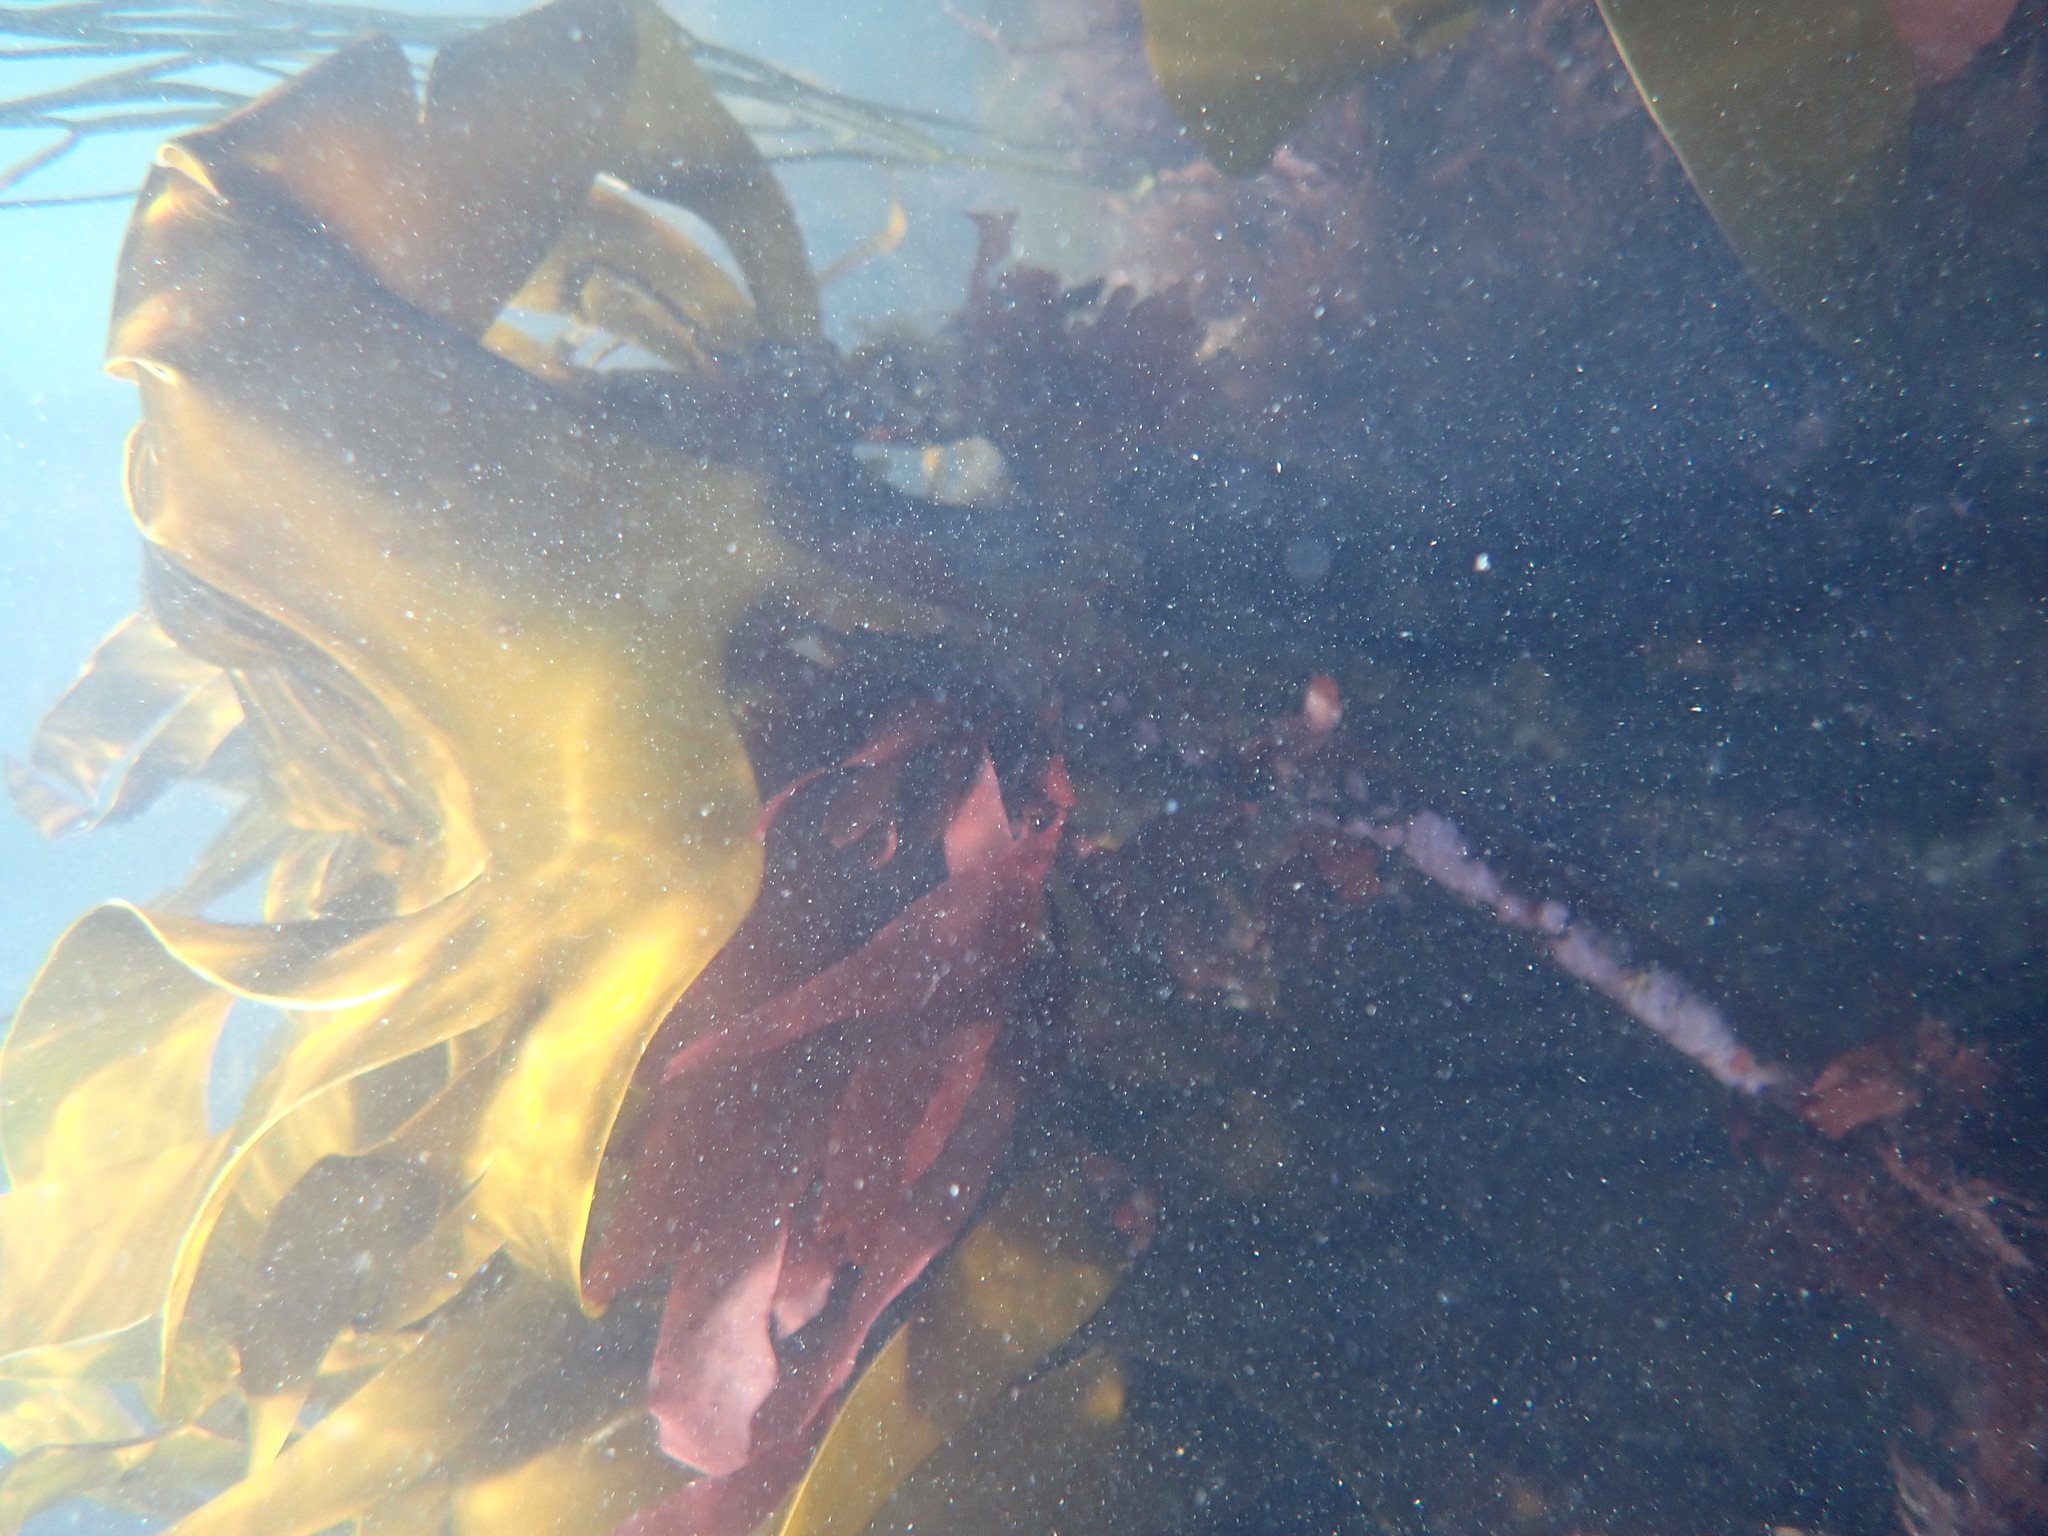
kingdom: Chromista
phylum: Ochrophyta
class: Phaeophyceae
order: Laminariales
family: Laminariaceae
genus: Laminaria
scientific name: Laminaria hyperborea
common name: Cuvie
